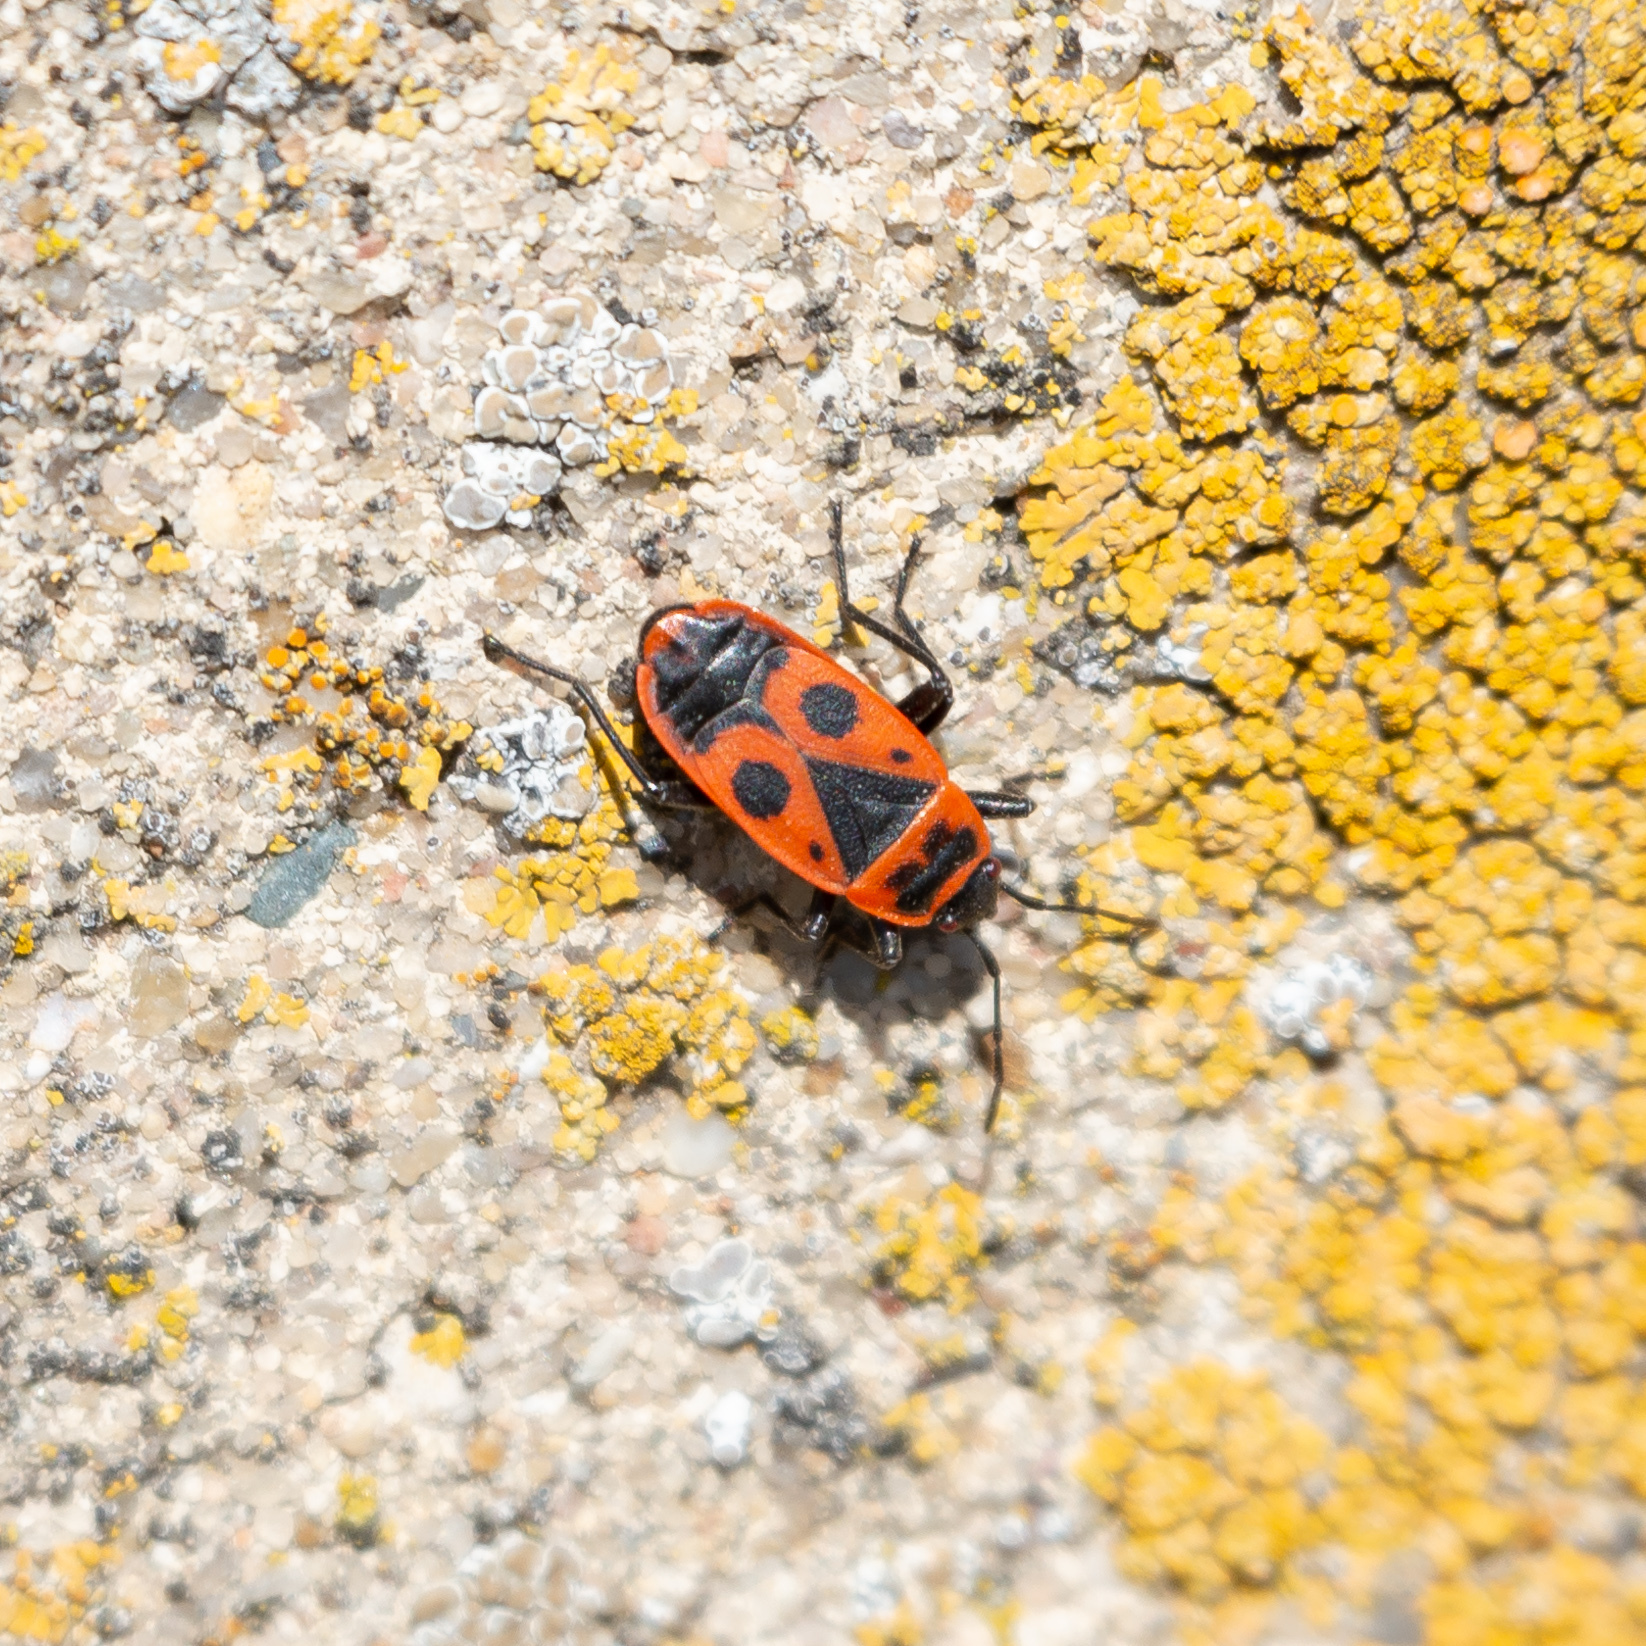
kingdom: Animalia
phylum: Arthropoda
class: Insecta
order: Hemiptera
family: Pyrrhocoridae
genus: Pyrrhocoris
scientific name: Pyrrhocoris apterus
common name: Firebug
